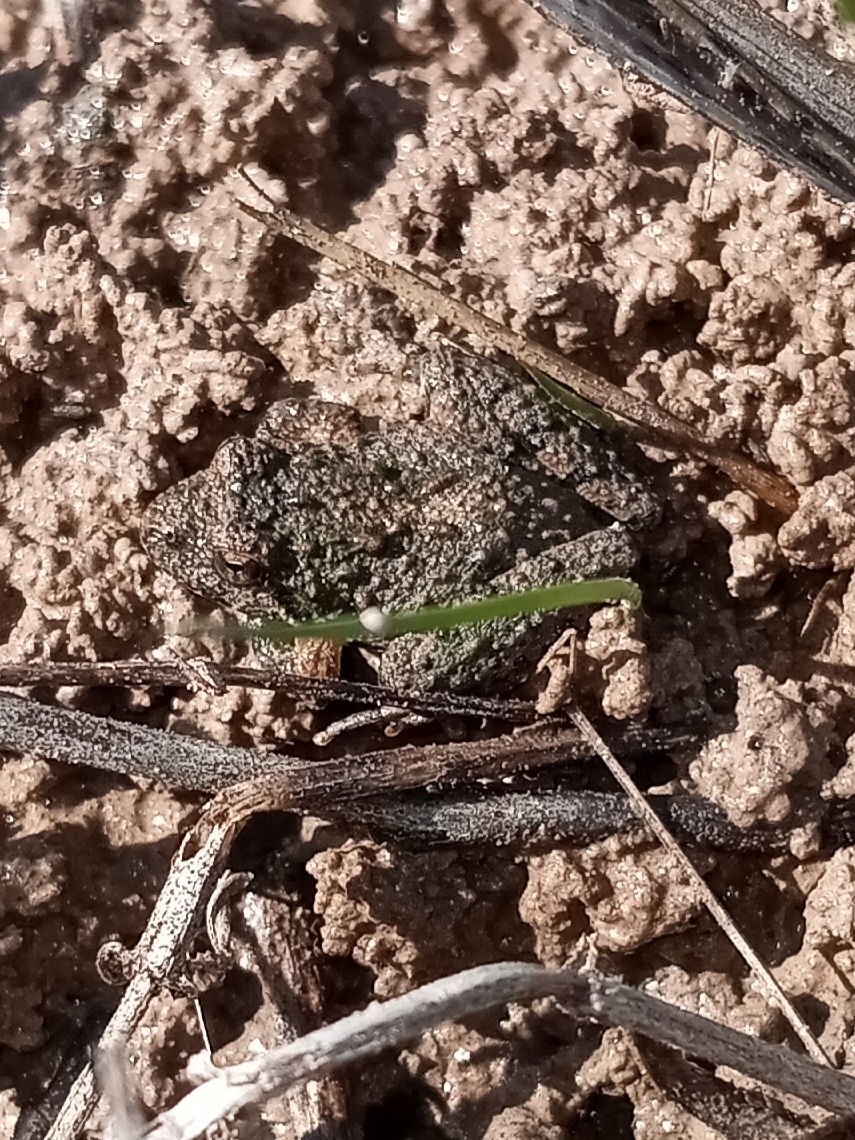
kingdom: Animalia
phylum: Chordata
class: Amphibia
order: Anura
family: Hylidae
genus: Acris
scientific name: Acris crepitans
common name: Northern cricket frog
